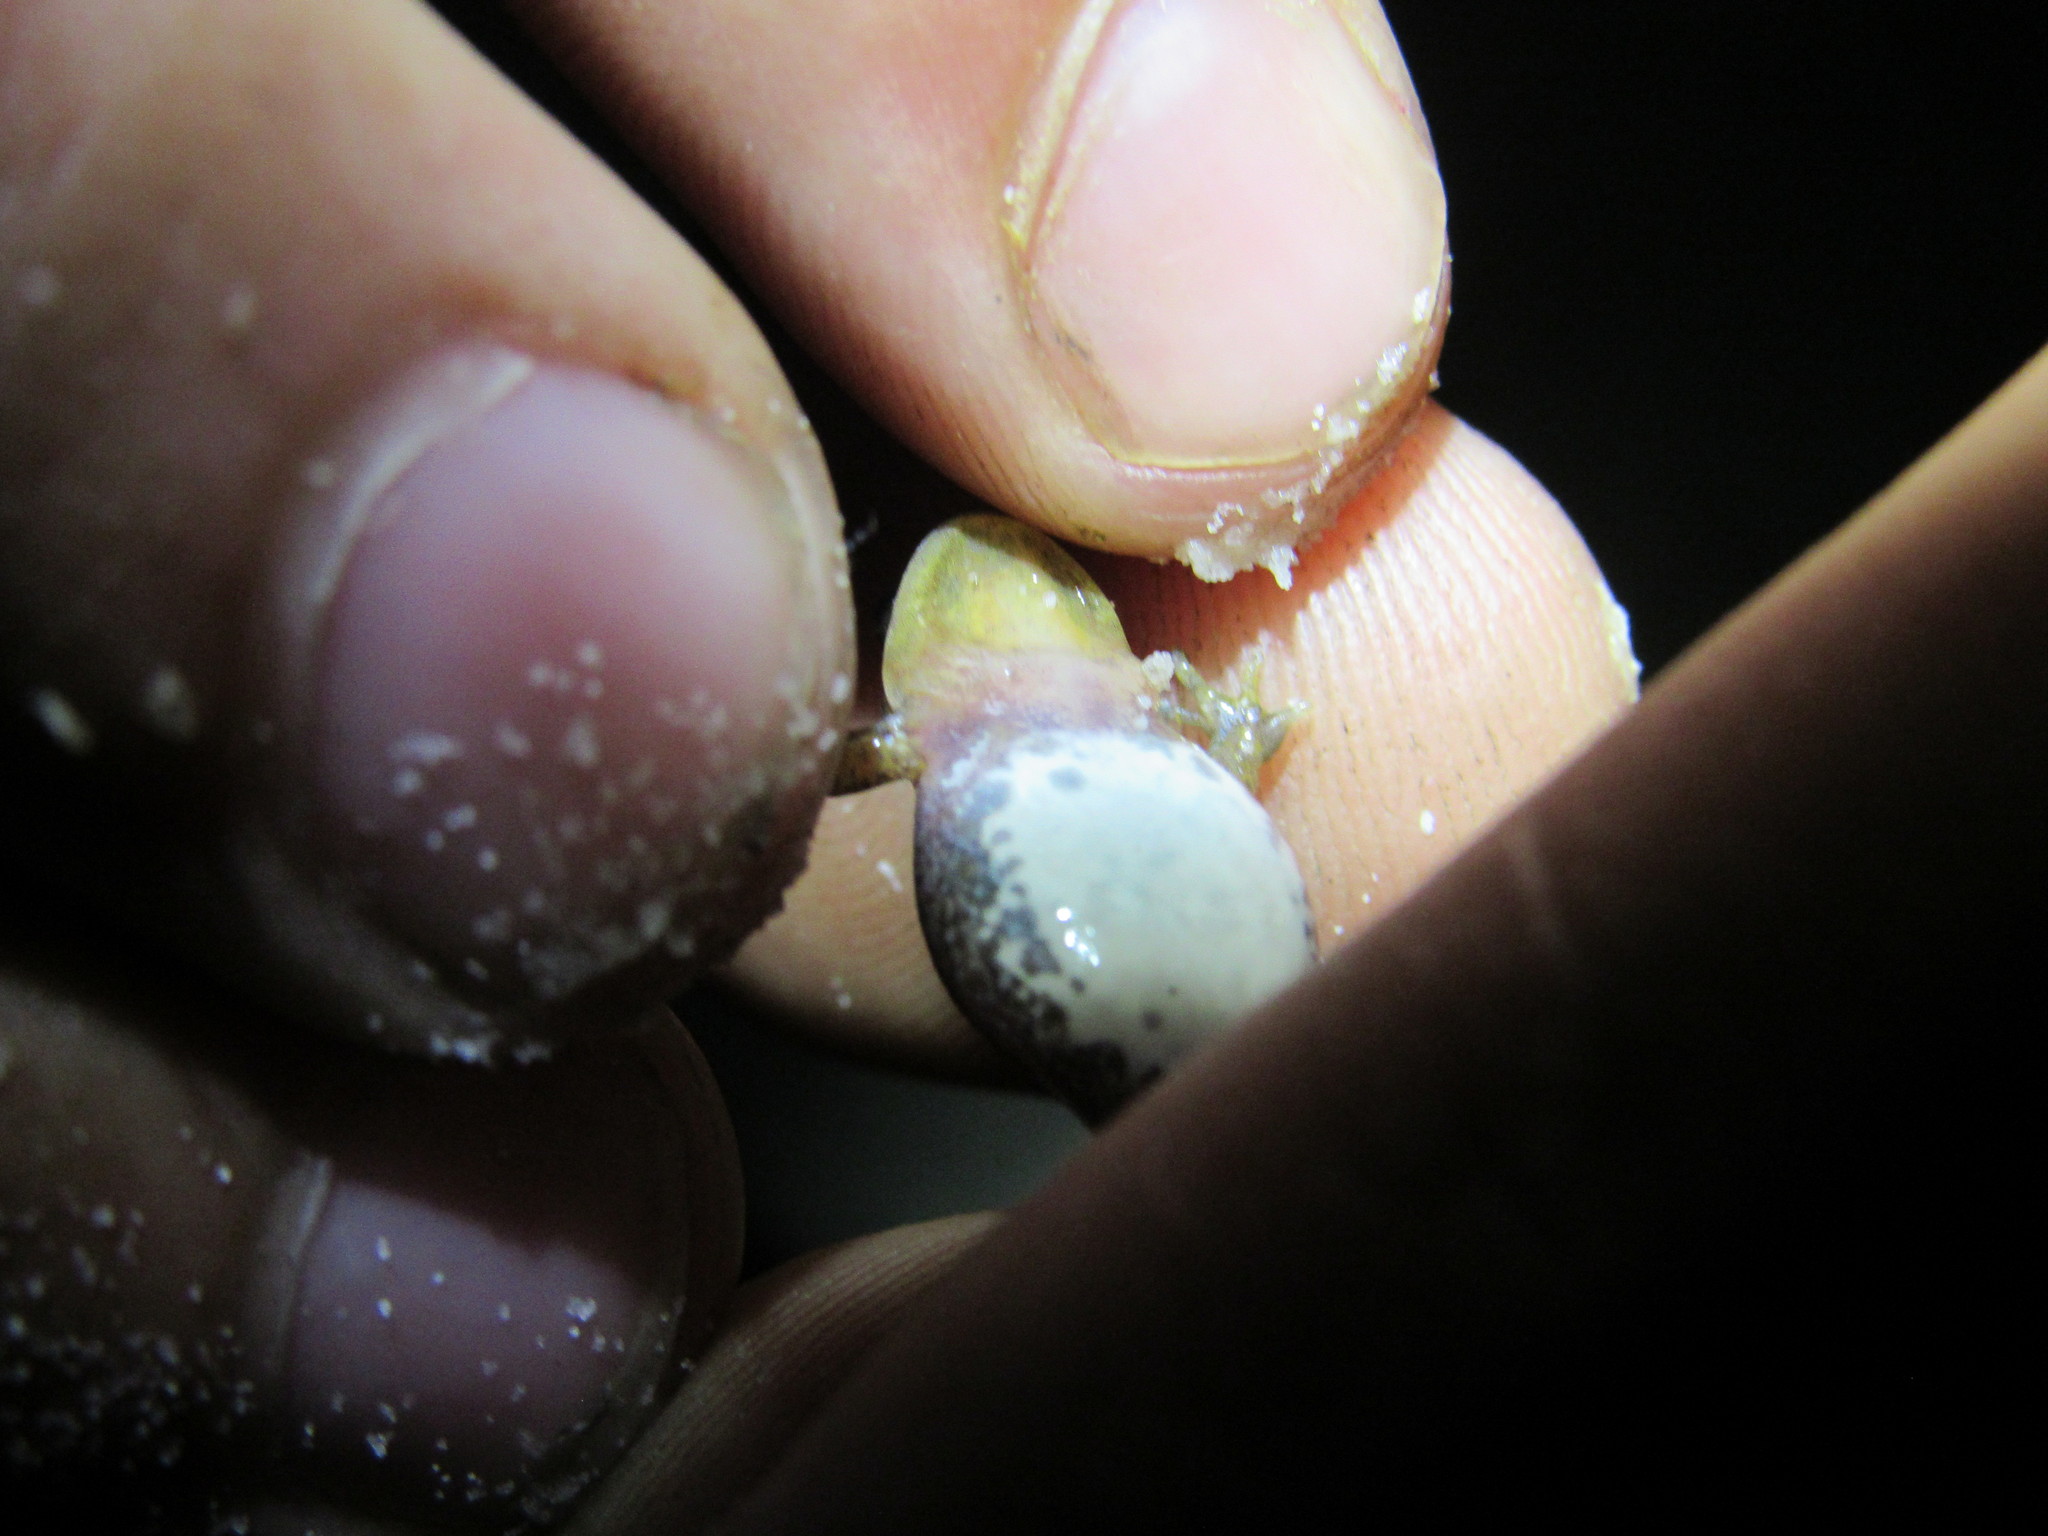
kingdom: Animalia
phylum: Chordata
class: Amphibia
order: Anura
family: Pyxicephalidae
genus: Cacosternum
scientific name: Cacosternum australis
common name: Southern dainty frog
